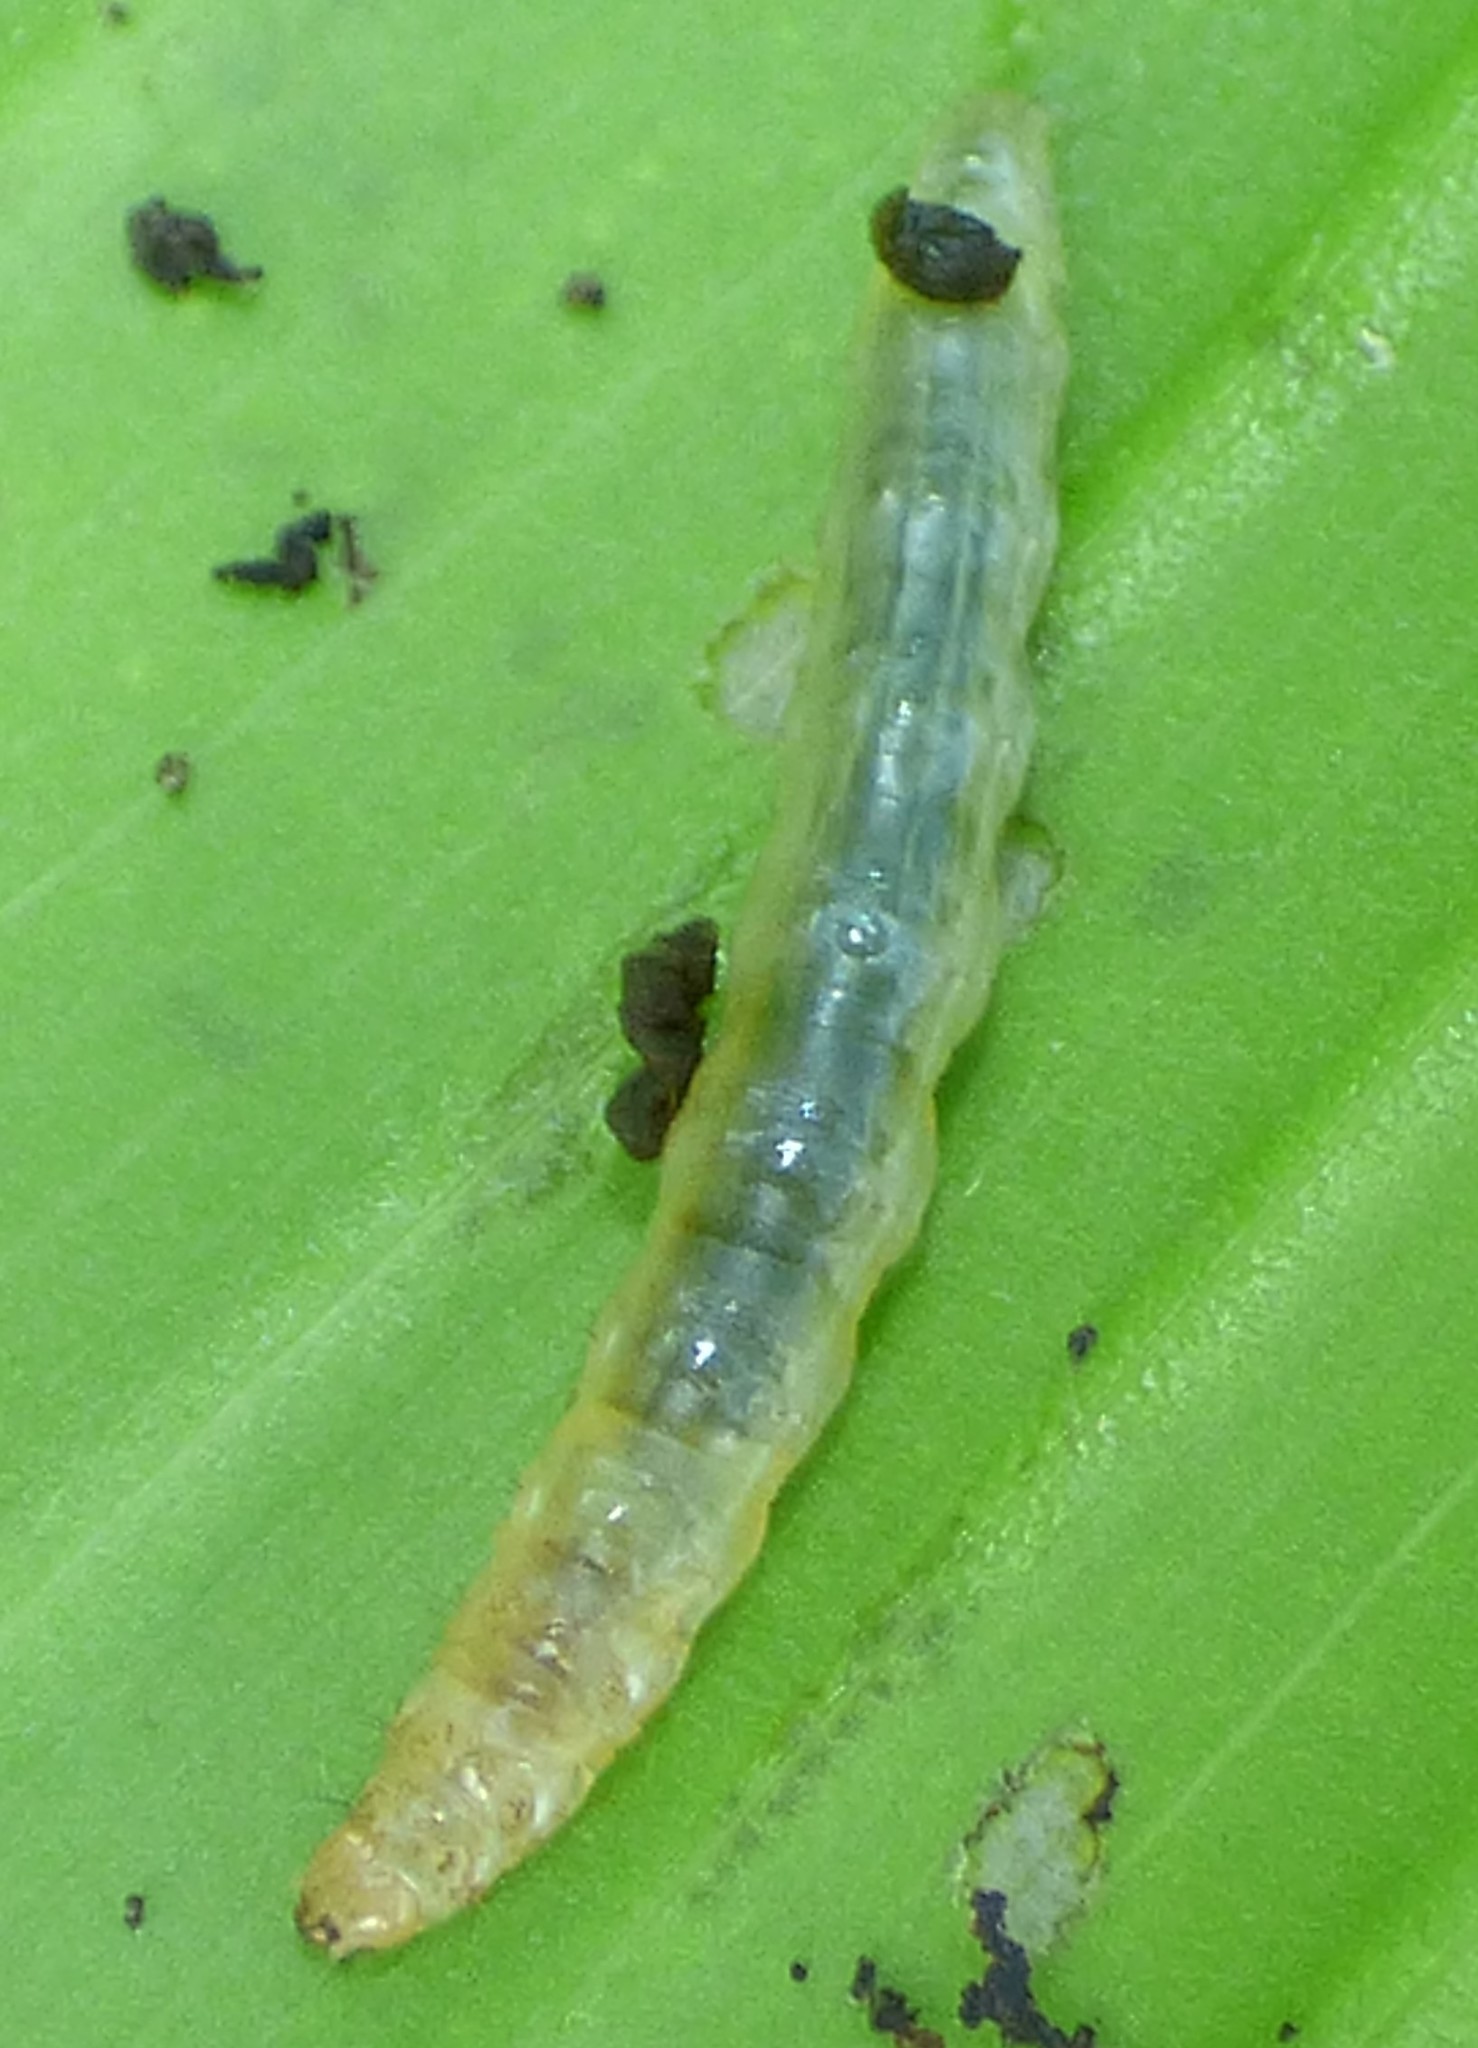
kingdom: Animalia
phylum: Arthropoda
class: Insecta
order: Lepidoptera
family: Crambidae
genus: Geshna
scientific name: Geshna cannalis
